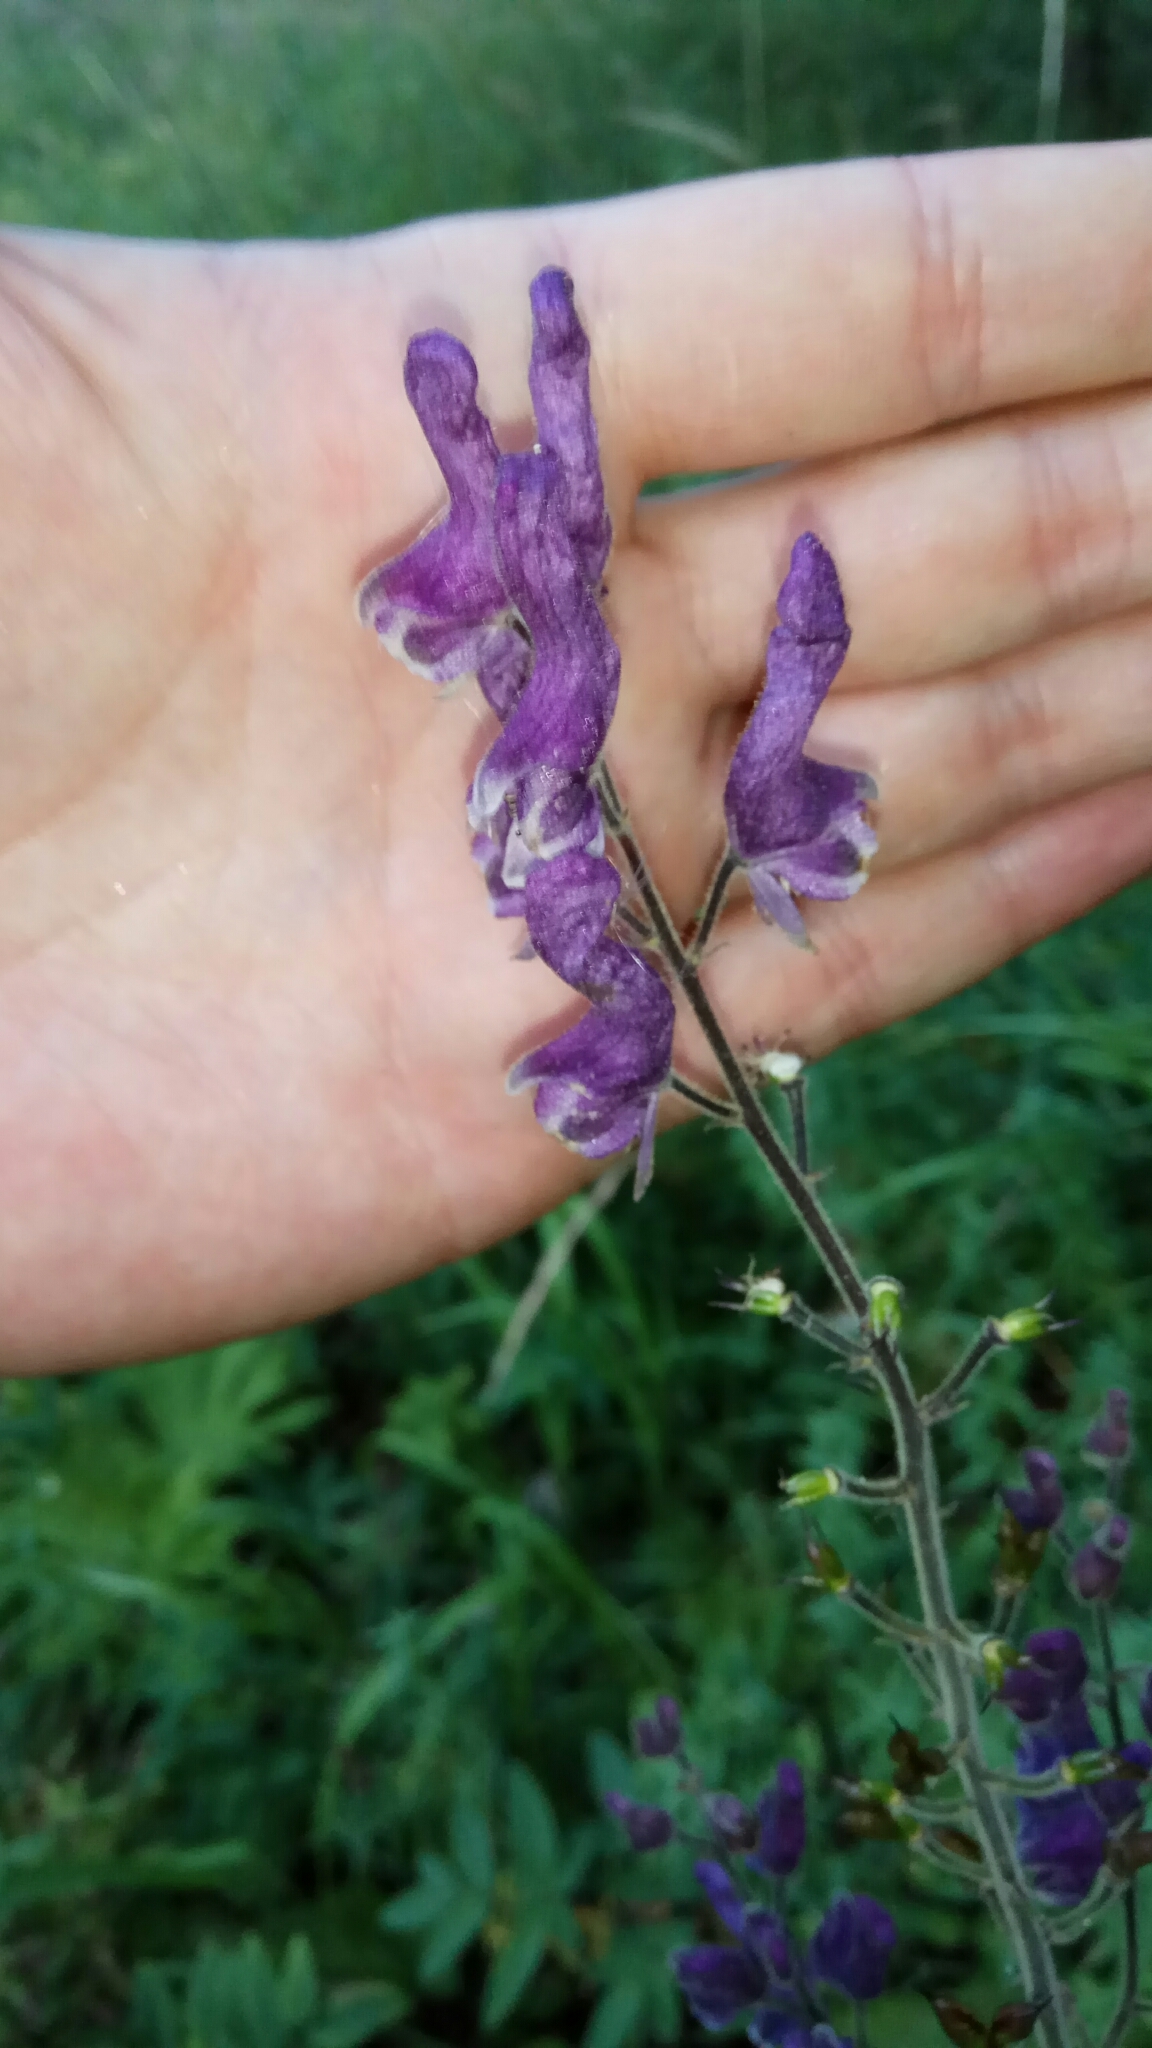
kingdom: Plantae
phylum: Tracheophyta
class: Magnoliopsida
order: Ranunculales
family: Ranunculaceae
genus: Aconitum
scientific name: Aconitum septentrionale
